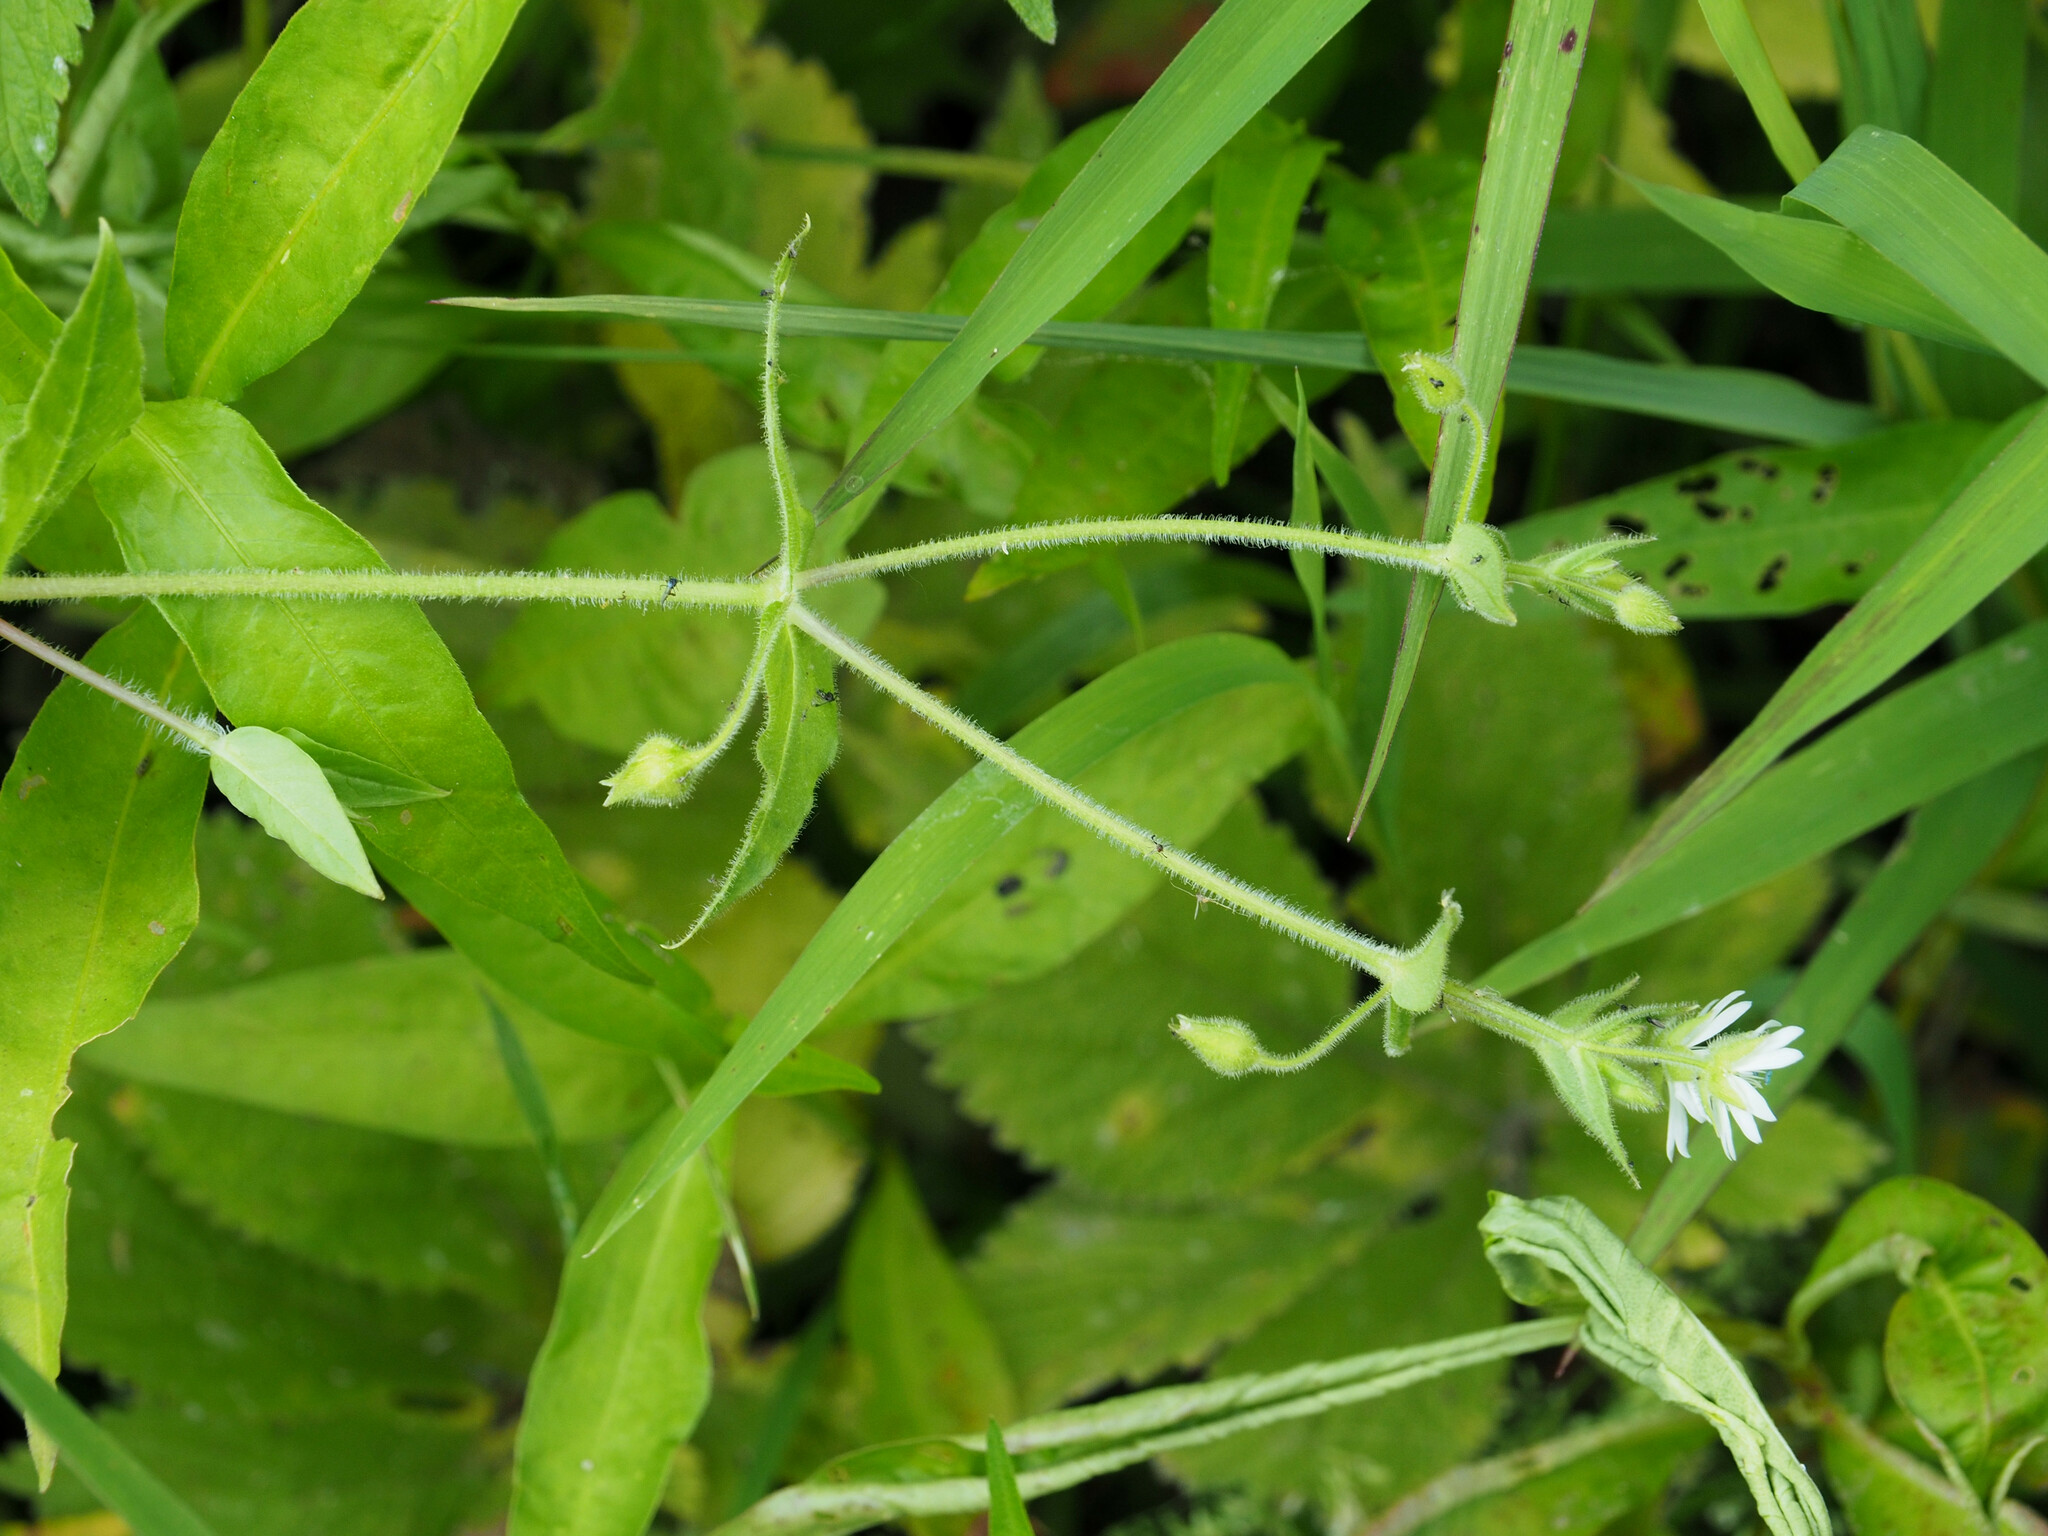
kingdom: Plantae
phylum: Tracheophyta
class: Magnoliopsida
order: Caryophyllales
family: Caryophyllaceae
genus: Stellaria
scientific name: Stellaria aquatica
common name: Water chickweed
